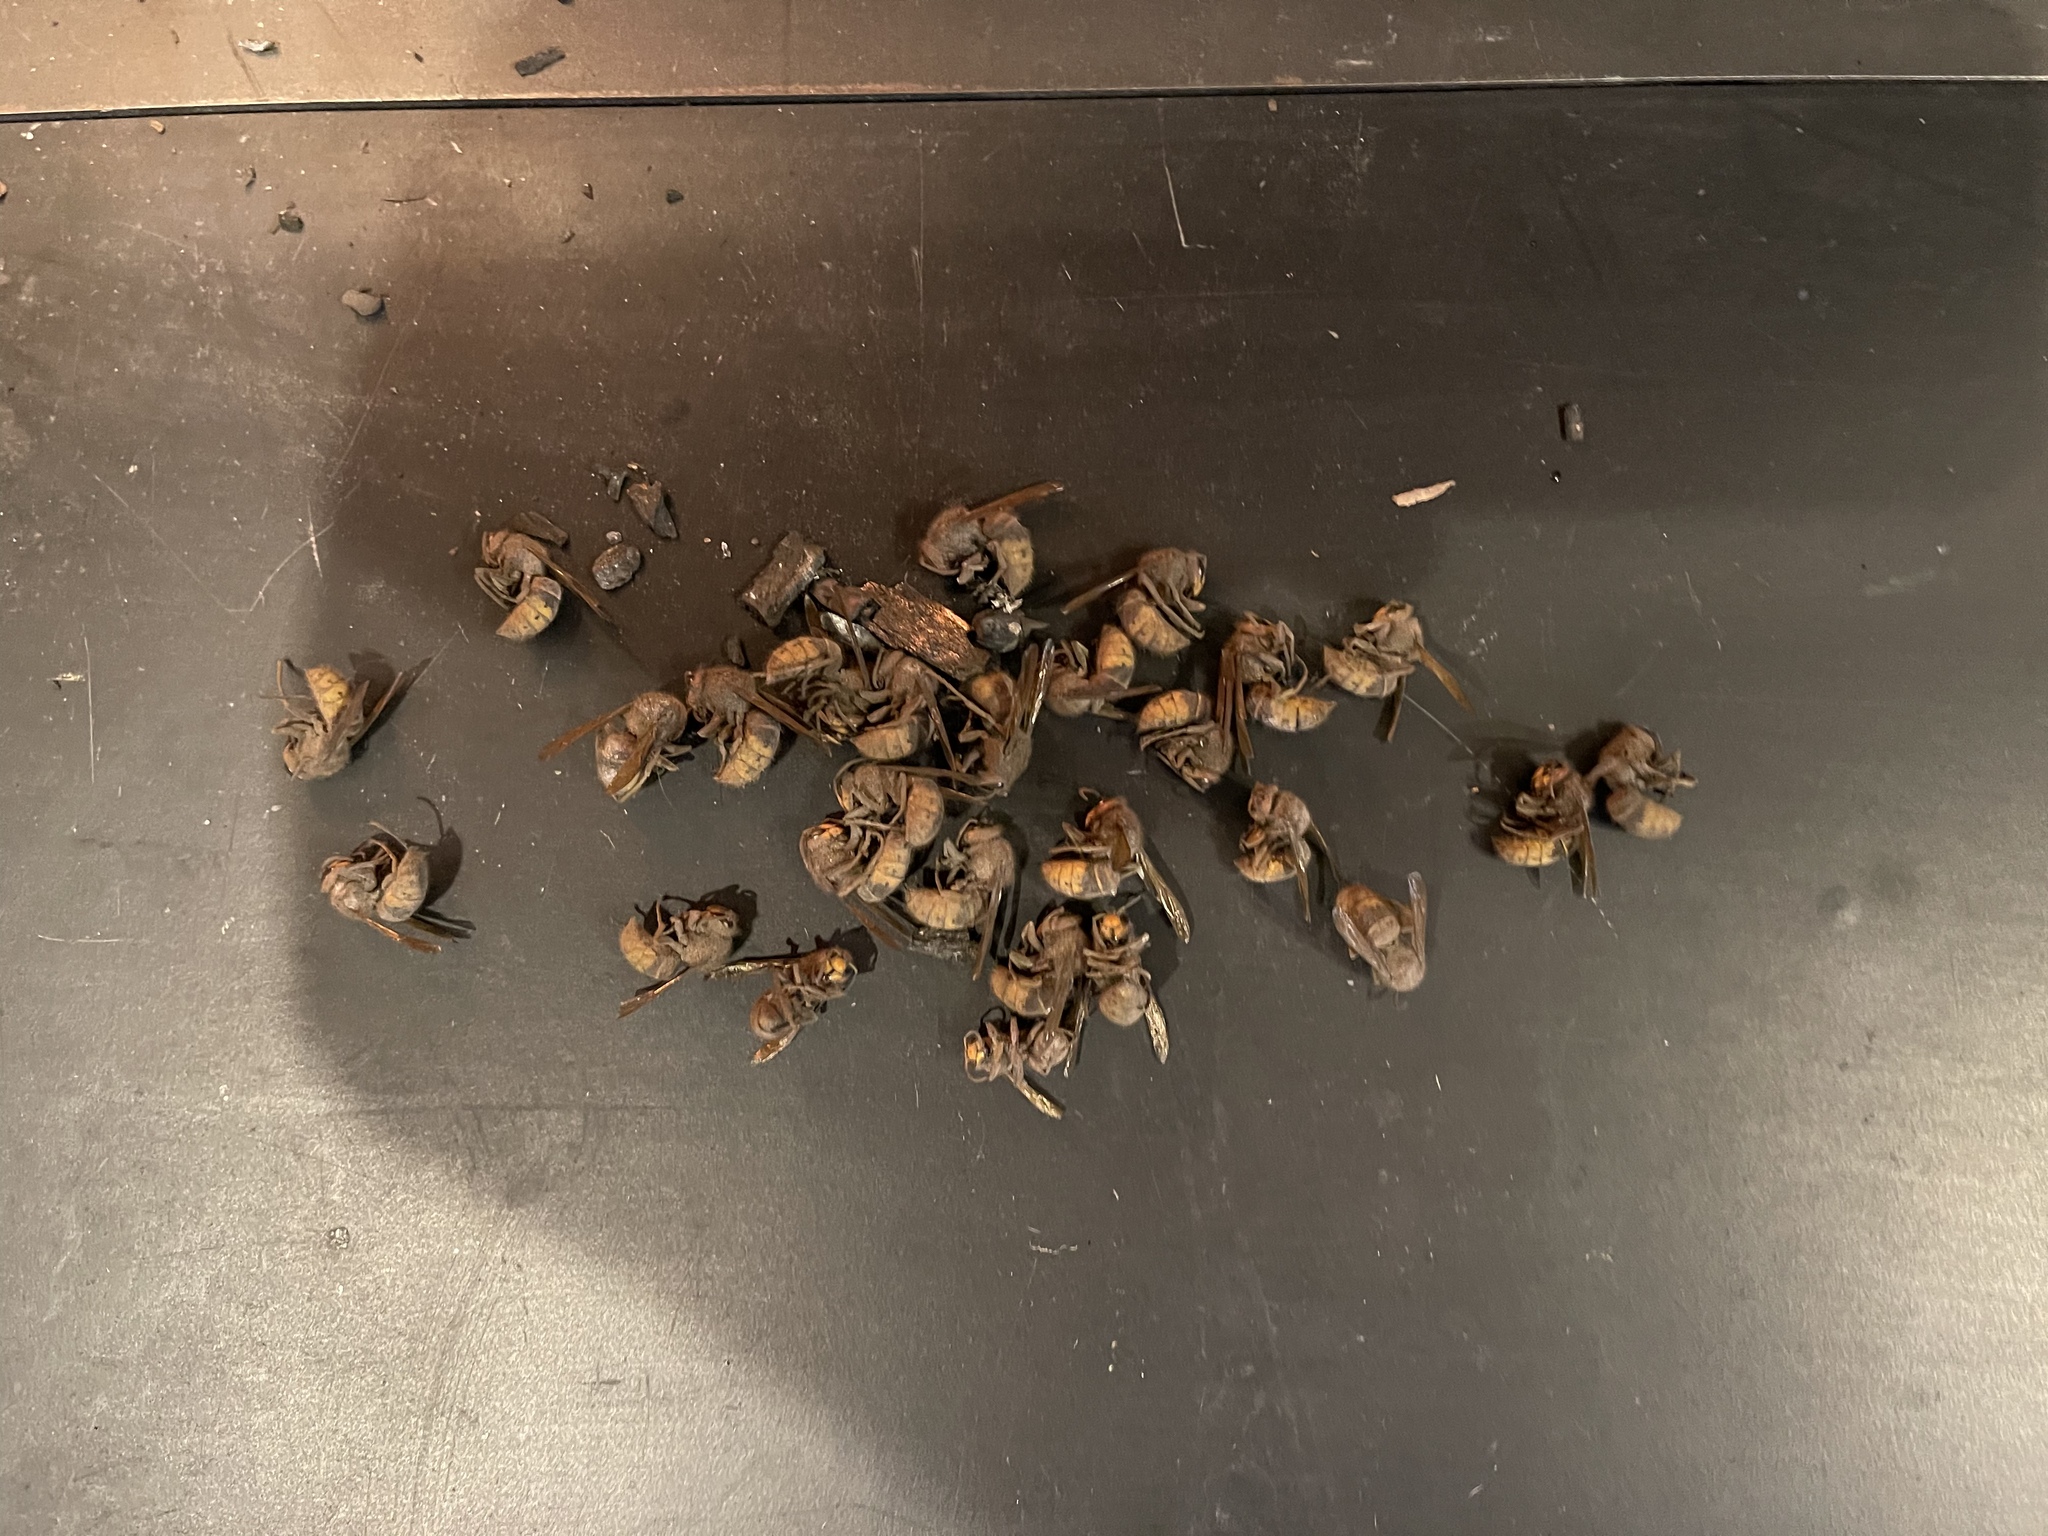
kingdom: Animalia
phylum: Arthropoda
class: Insecta
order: Hymenoptera
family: Vespidae
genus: Vespa
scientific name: Vespa crabro
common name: Hornet
